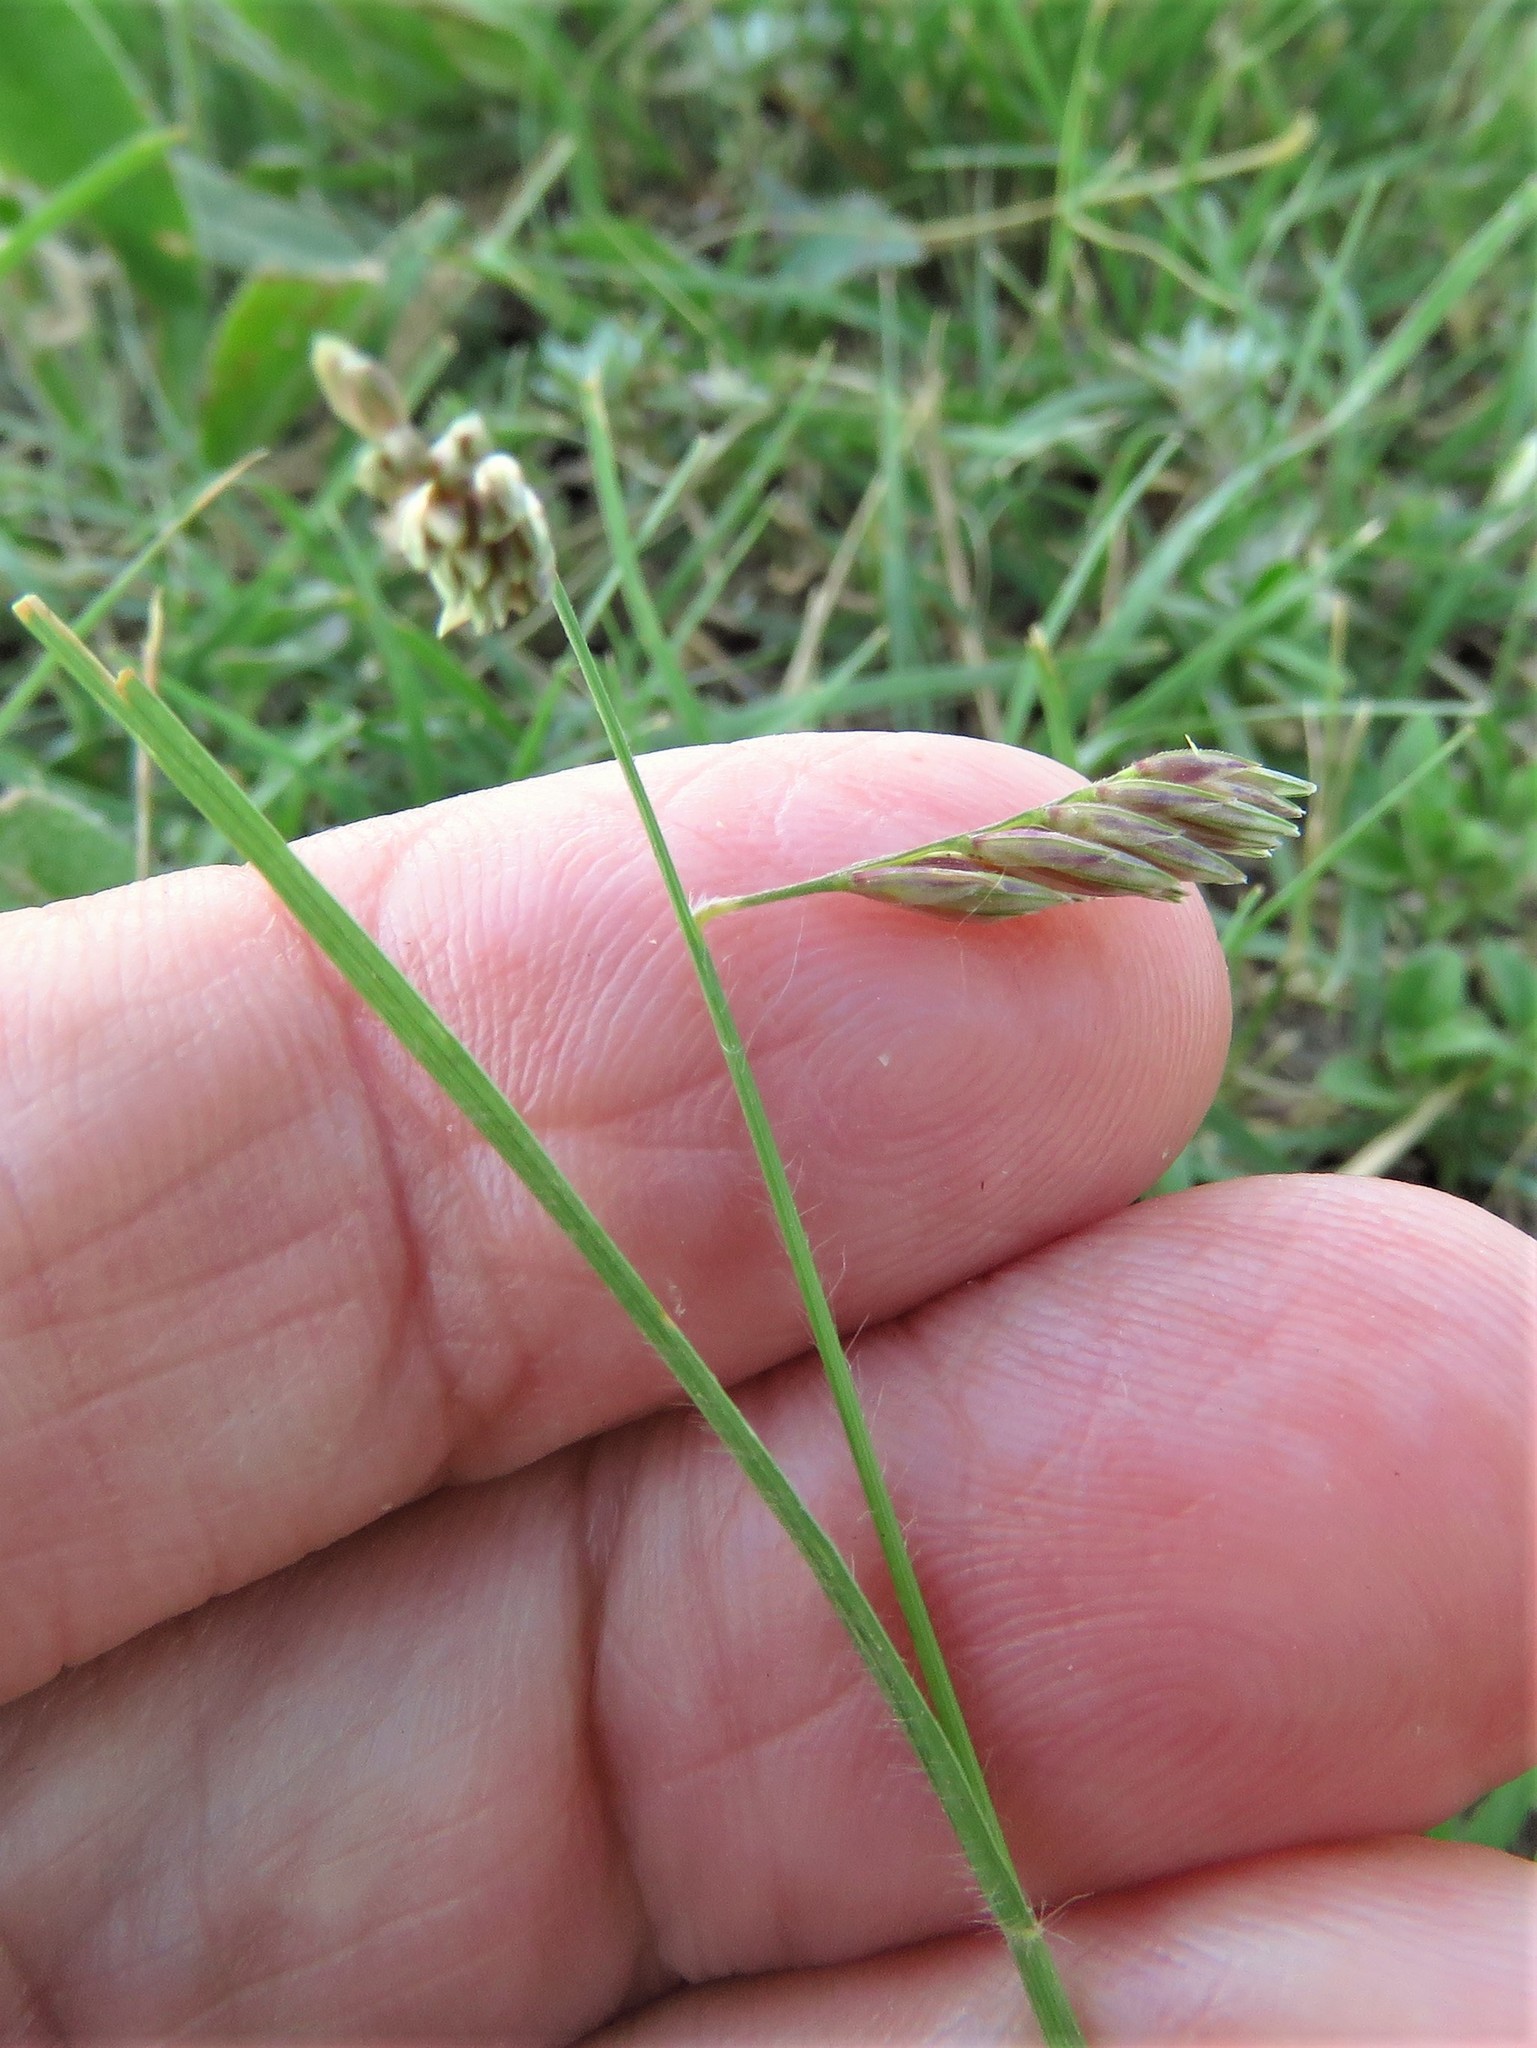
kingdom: Plantae
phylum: Tracheophyta
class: Liliopsida
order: Poales
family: Poaceae
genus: Bouteloua
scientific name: Bouteloua dactyloides
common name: Buffalo grass
